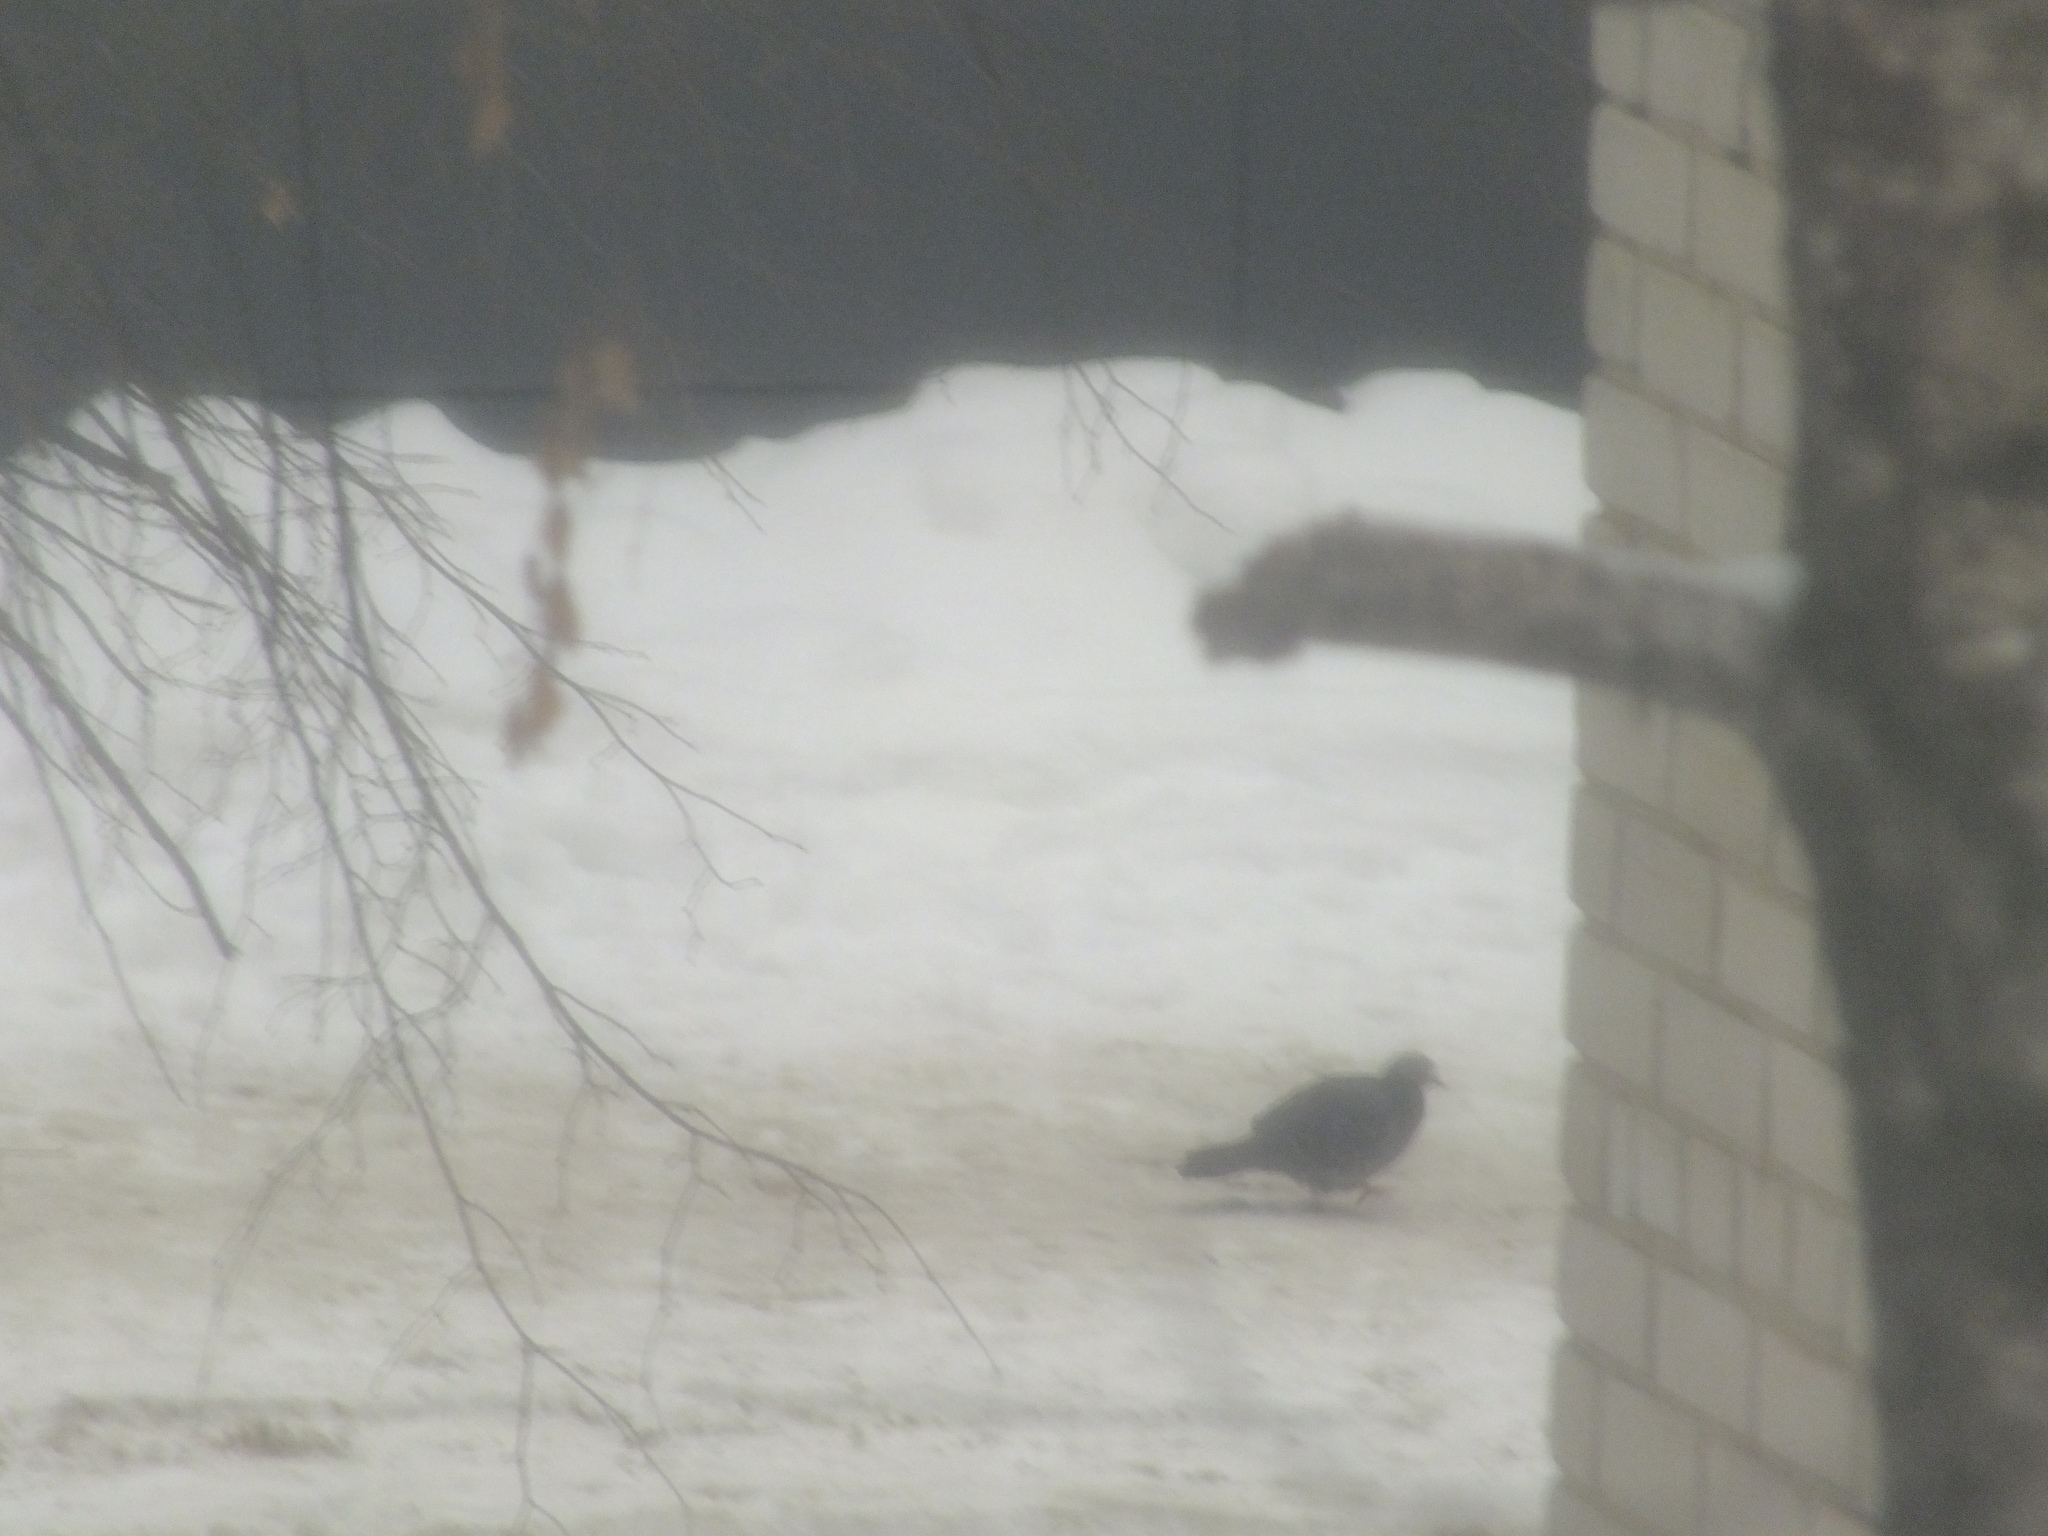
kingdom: Animalia
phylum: Chordata
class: Aves
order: Columbiformes
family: Columbidae
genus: Columba
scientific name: Columba livia
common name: Rock pigeon
